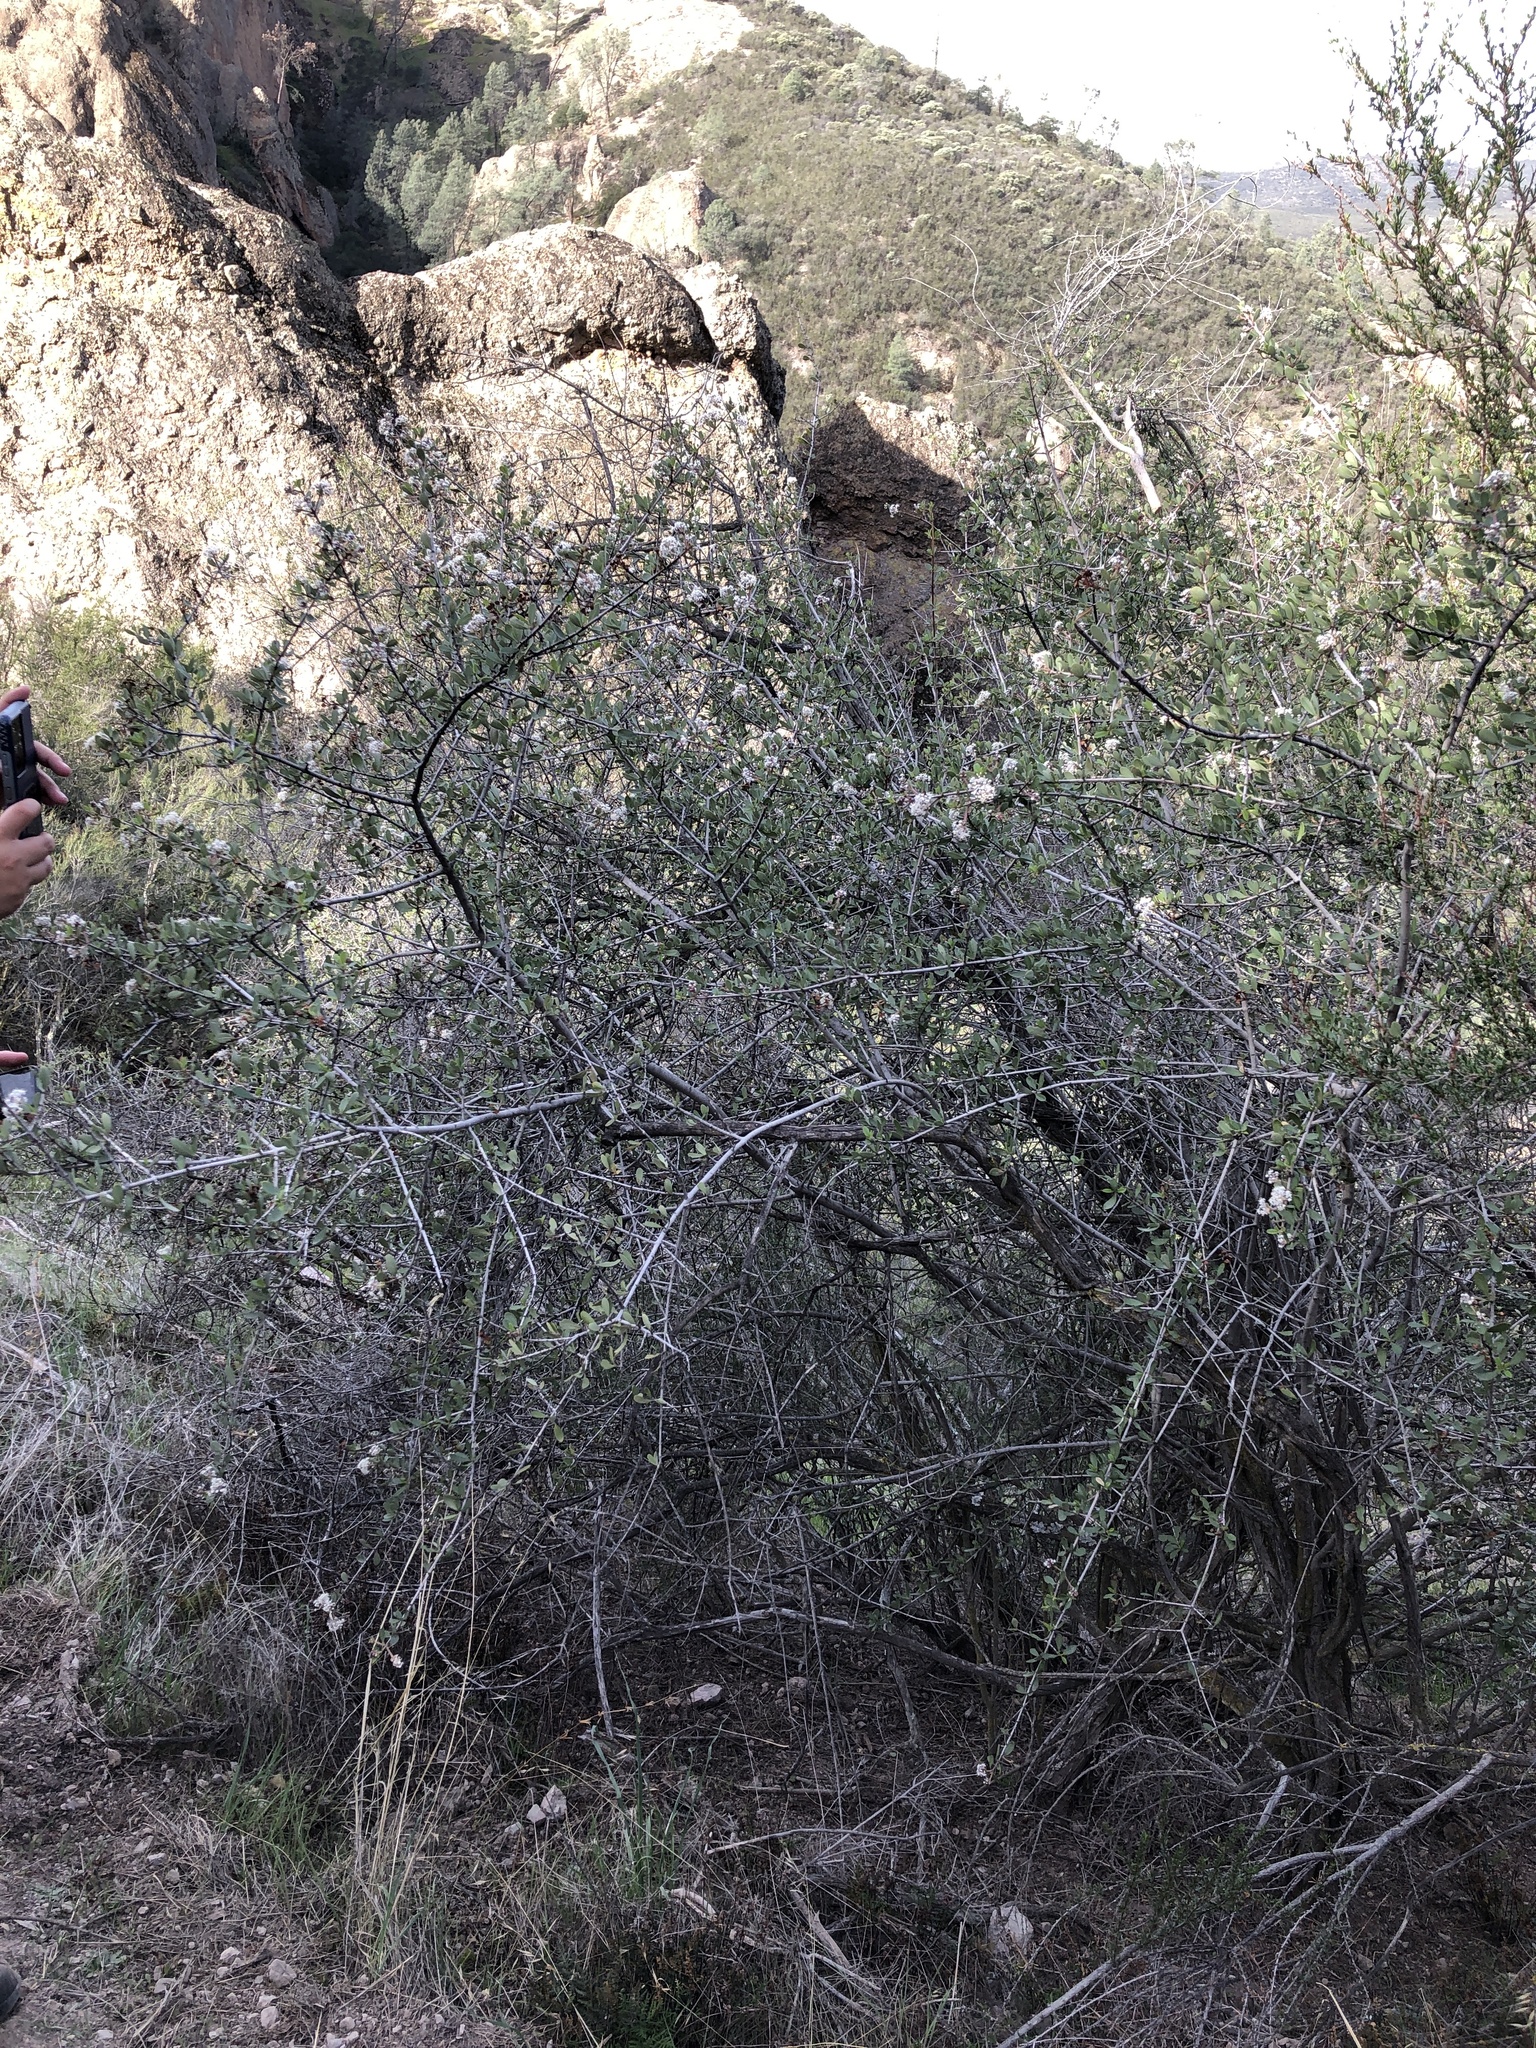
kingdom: Plantae
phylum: Tracheophyta
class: Magnoliopsida
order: Rosales
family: Rhamnaceae
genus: Ceanothus
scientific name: Ceanothus cuneatus
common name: Cuneate ceanothus
